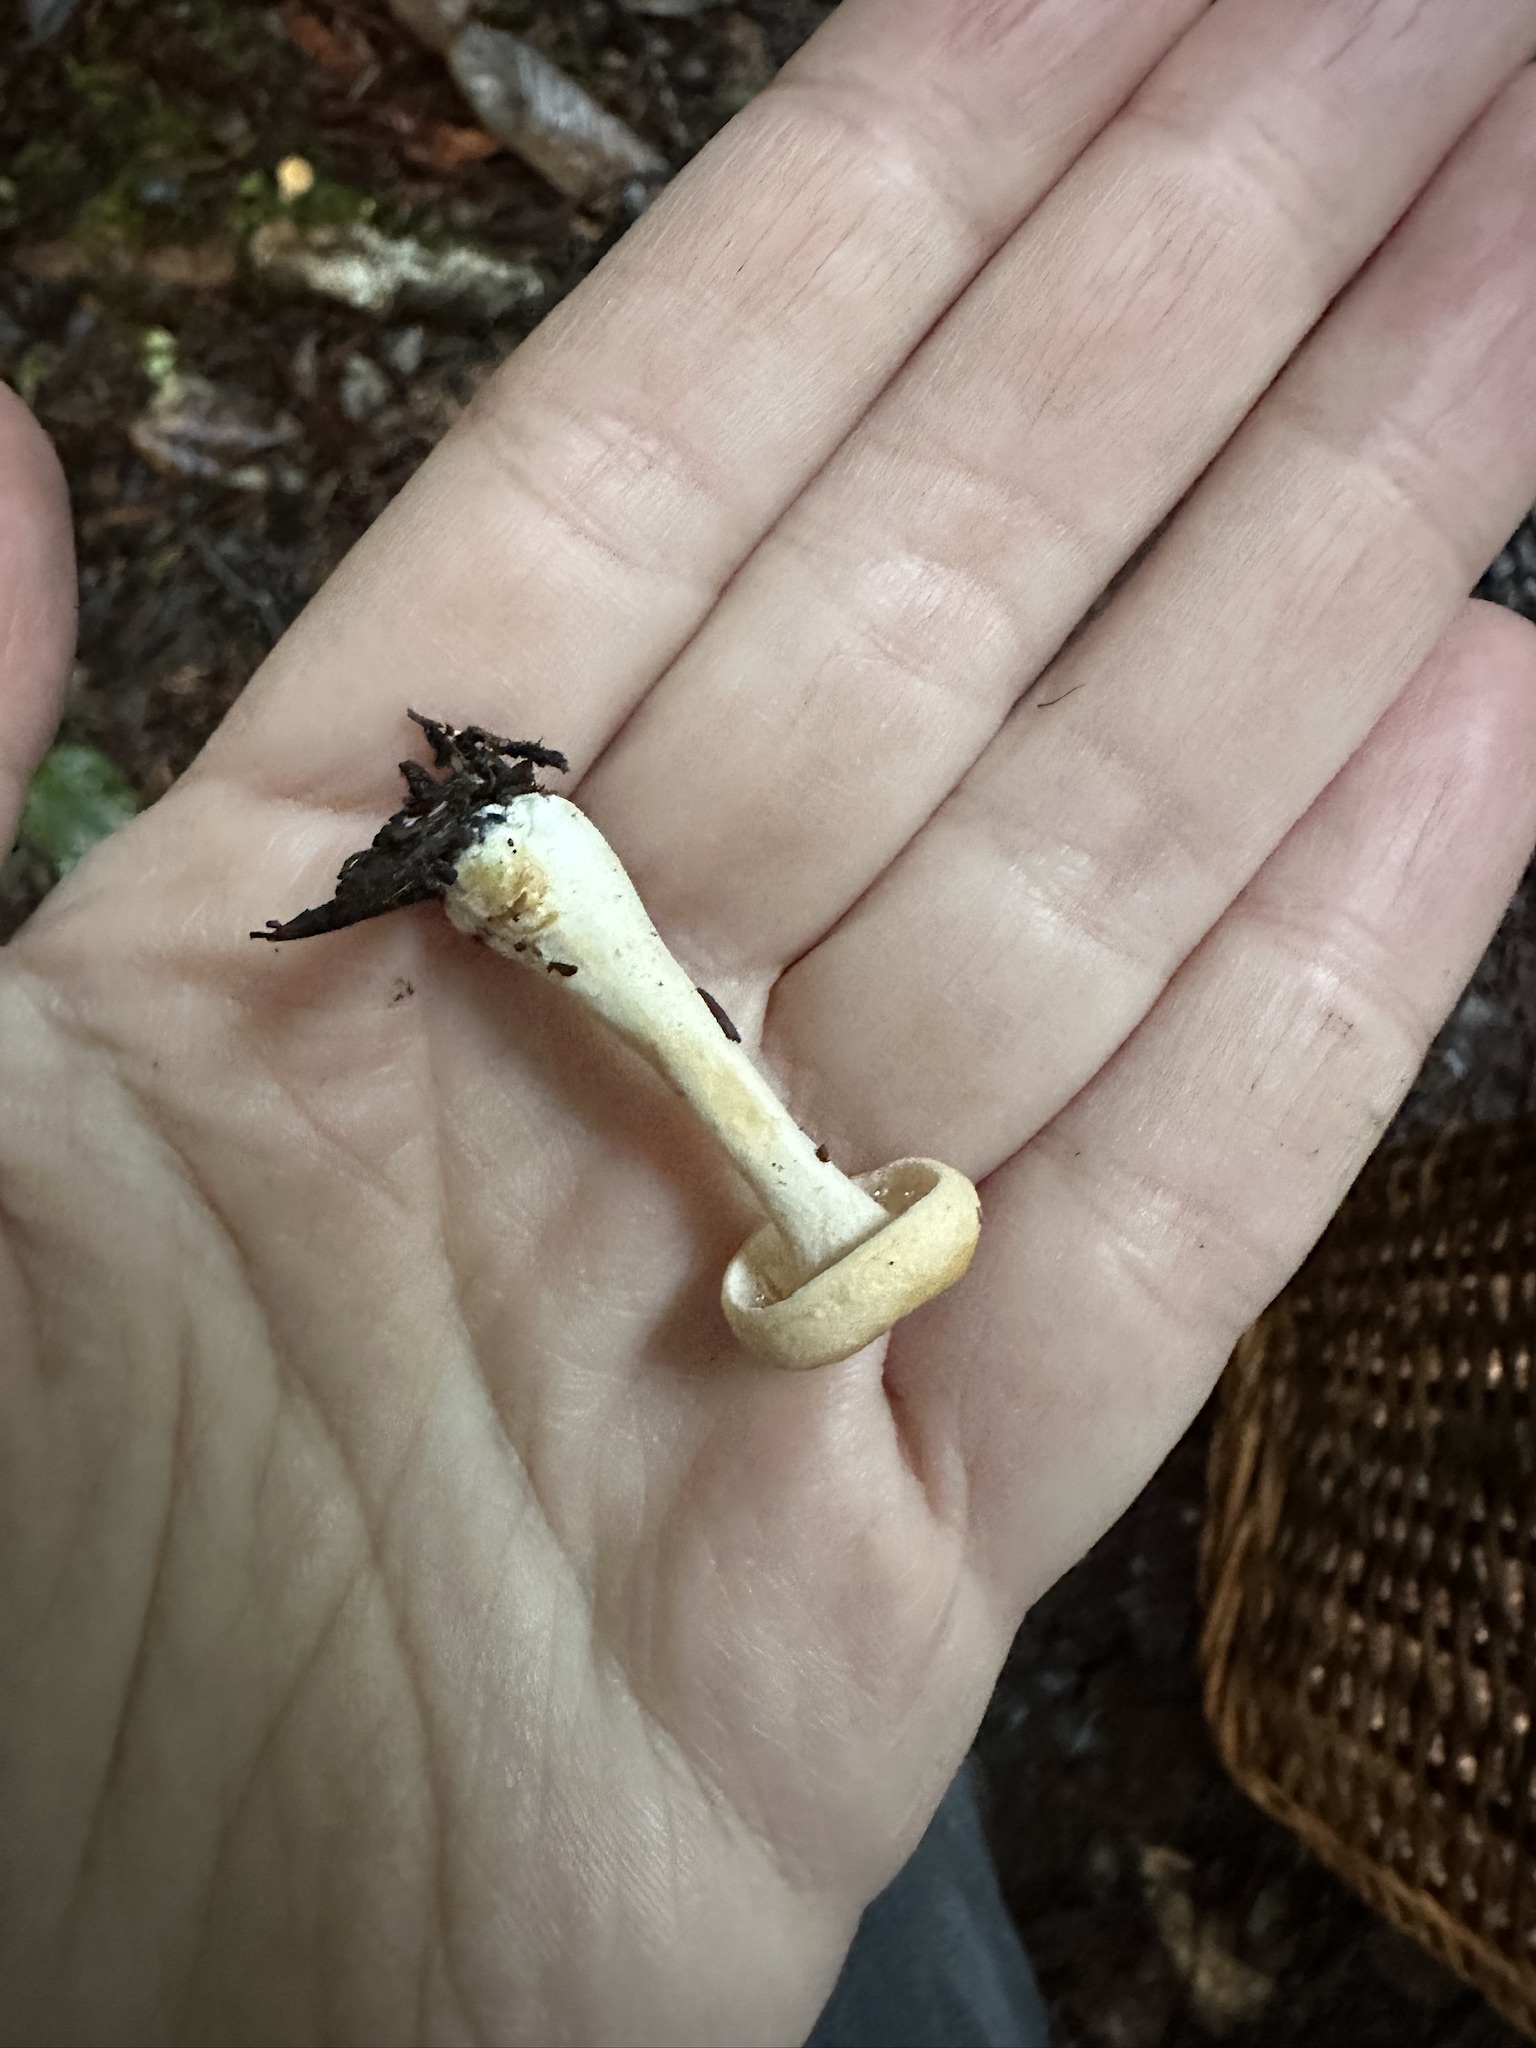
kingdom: Fungi
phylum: Basidiomycota
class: Agaricomycetes
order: Cantharellales
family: Hydnaceae
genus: Hydnum
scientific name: Hydnum oregonense
